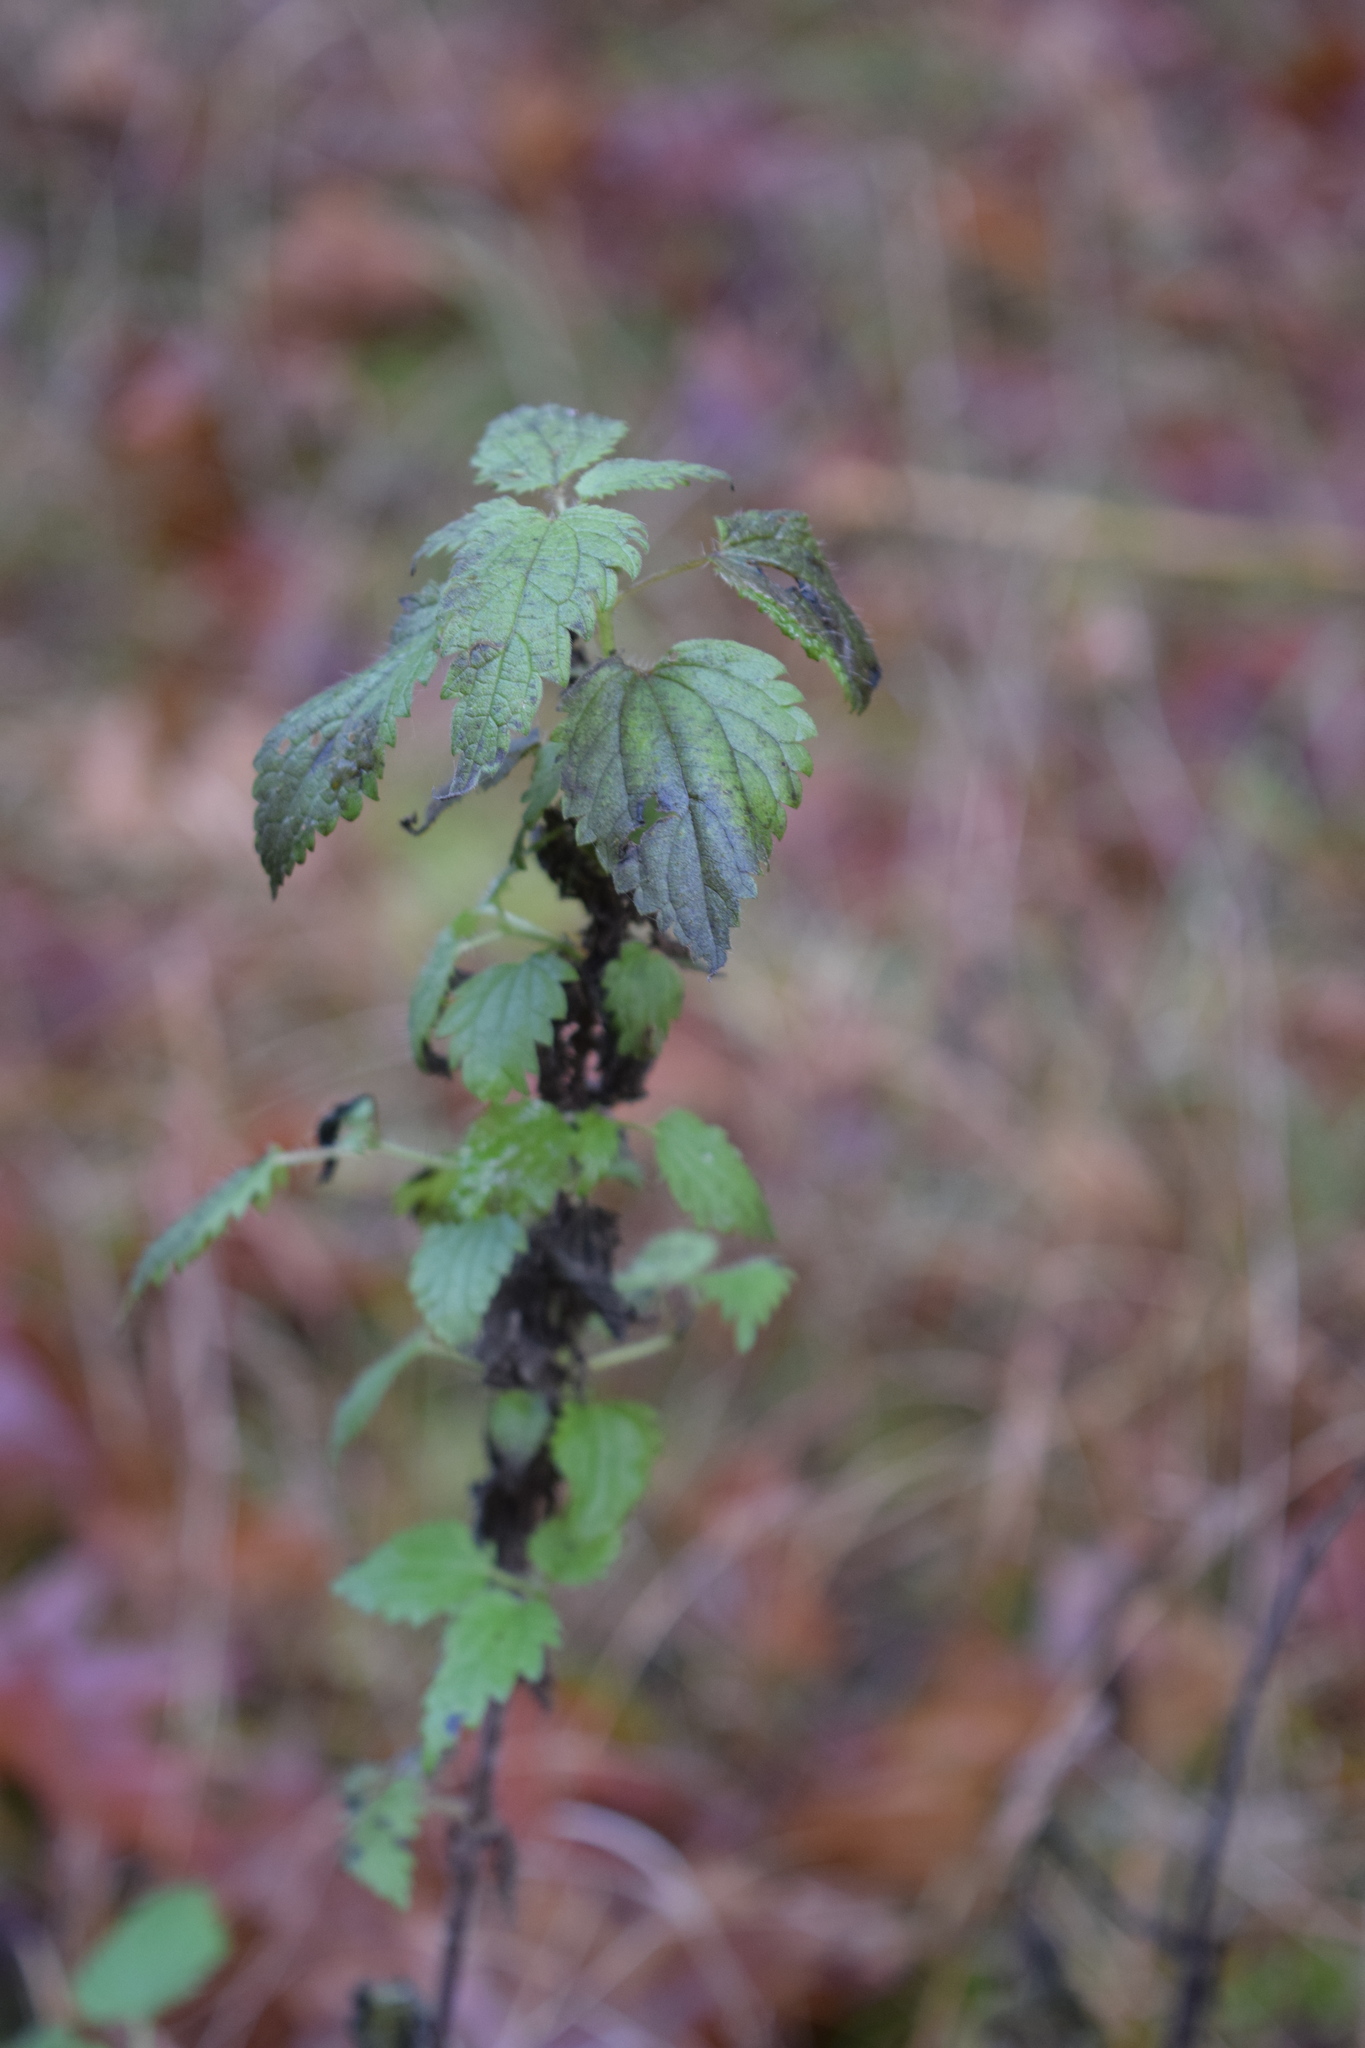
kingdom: Plantae
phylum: Tracheophyta
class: Magnoliopsida
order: Rosales
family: Urticaceae
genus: Urtica
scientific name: Urtica dioica
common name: Common nettle
